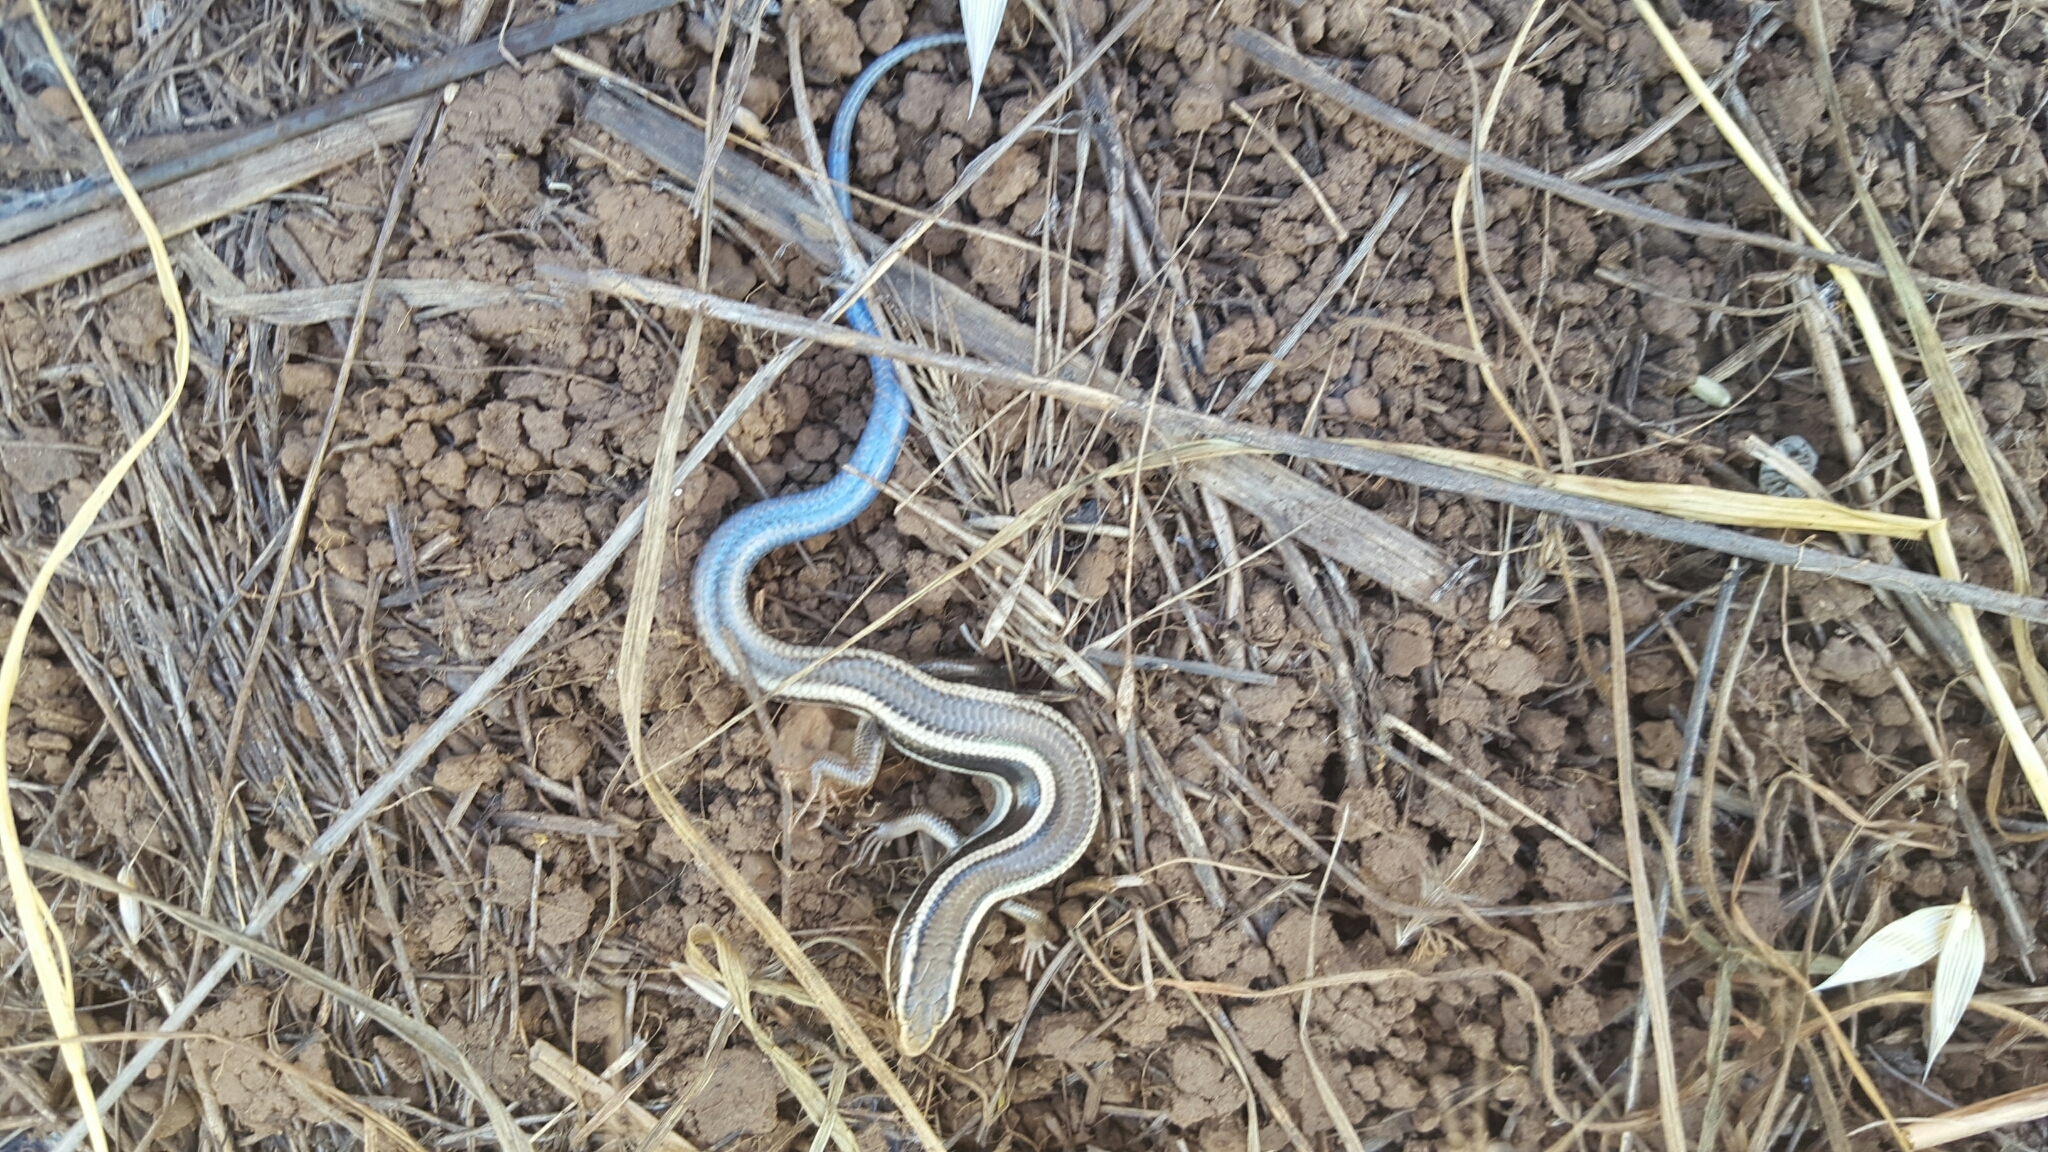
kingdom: Animalia
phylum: Chordata
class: Squamata
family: Scincidae
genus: Plestiodon
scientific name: Plestiodon skiltonianus
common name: Coronado island skink [interparietalis]
